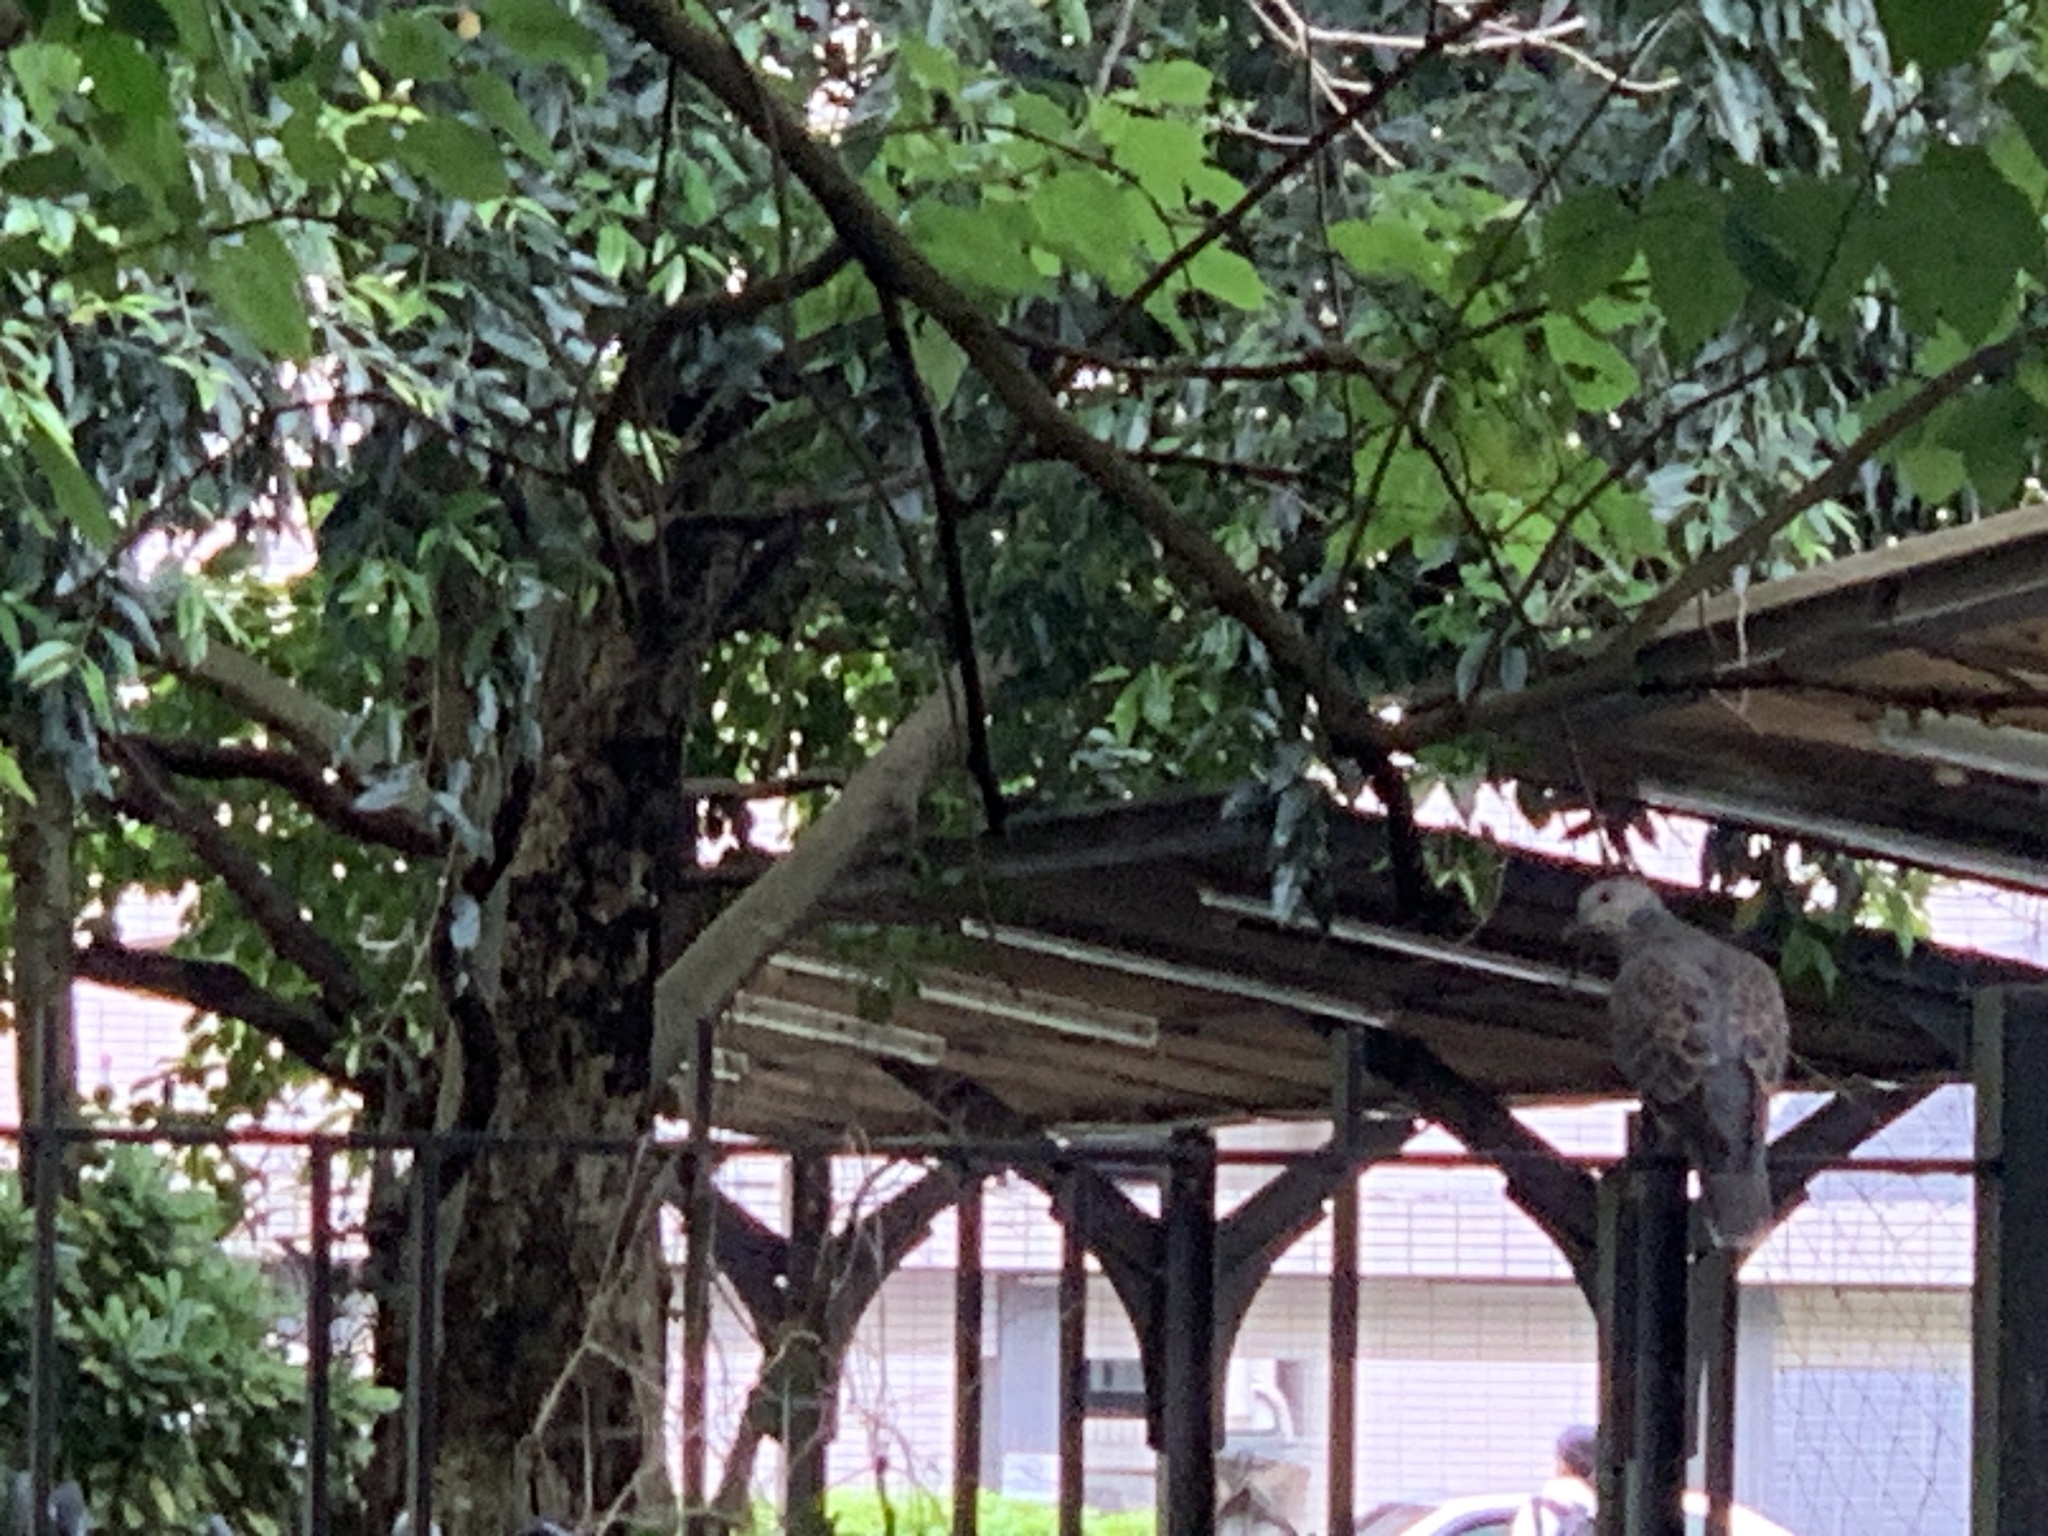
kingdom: Animalia
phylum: Chordata
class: Aves
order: Columbiformes
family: Columbidae
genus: Streptopelia
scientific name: Streptopelia orientalis
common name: Oriental turtle dove
